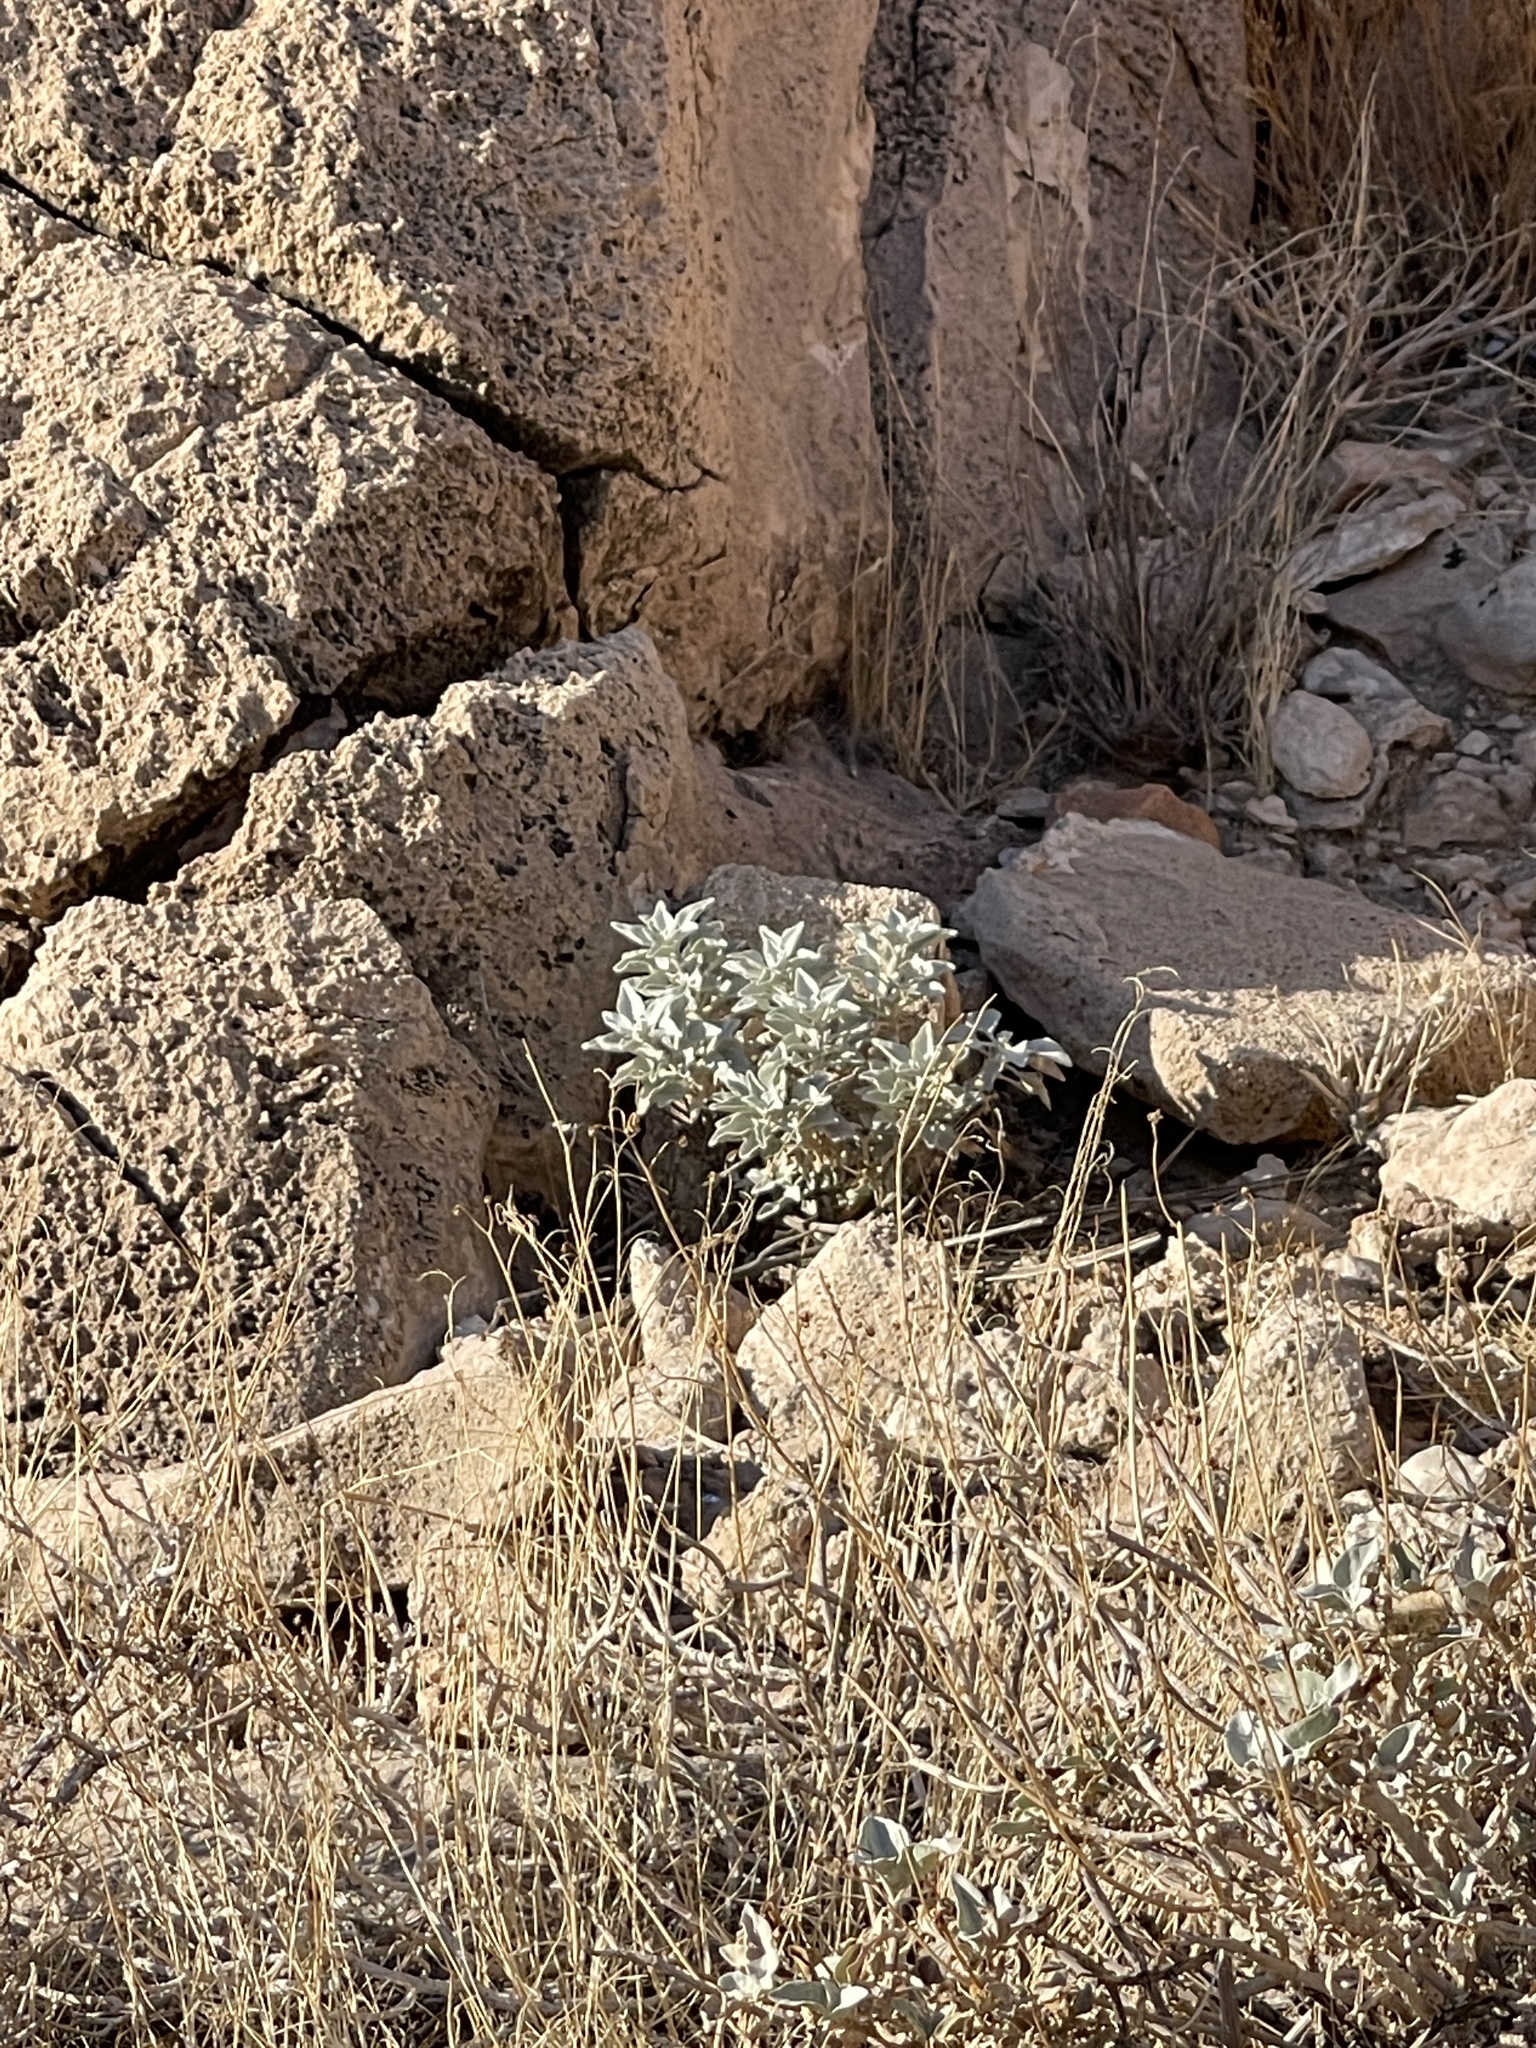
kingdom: Plantae
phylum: Tracheophyta
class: Magnoliopsida
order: Asterales
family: Asteraceae
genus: Encelia
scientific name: Encelia farinosa
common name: Brittlebush
